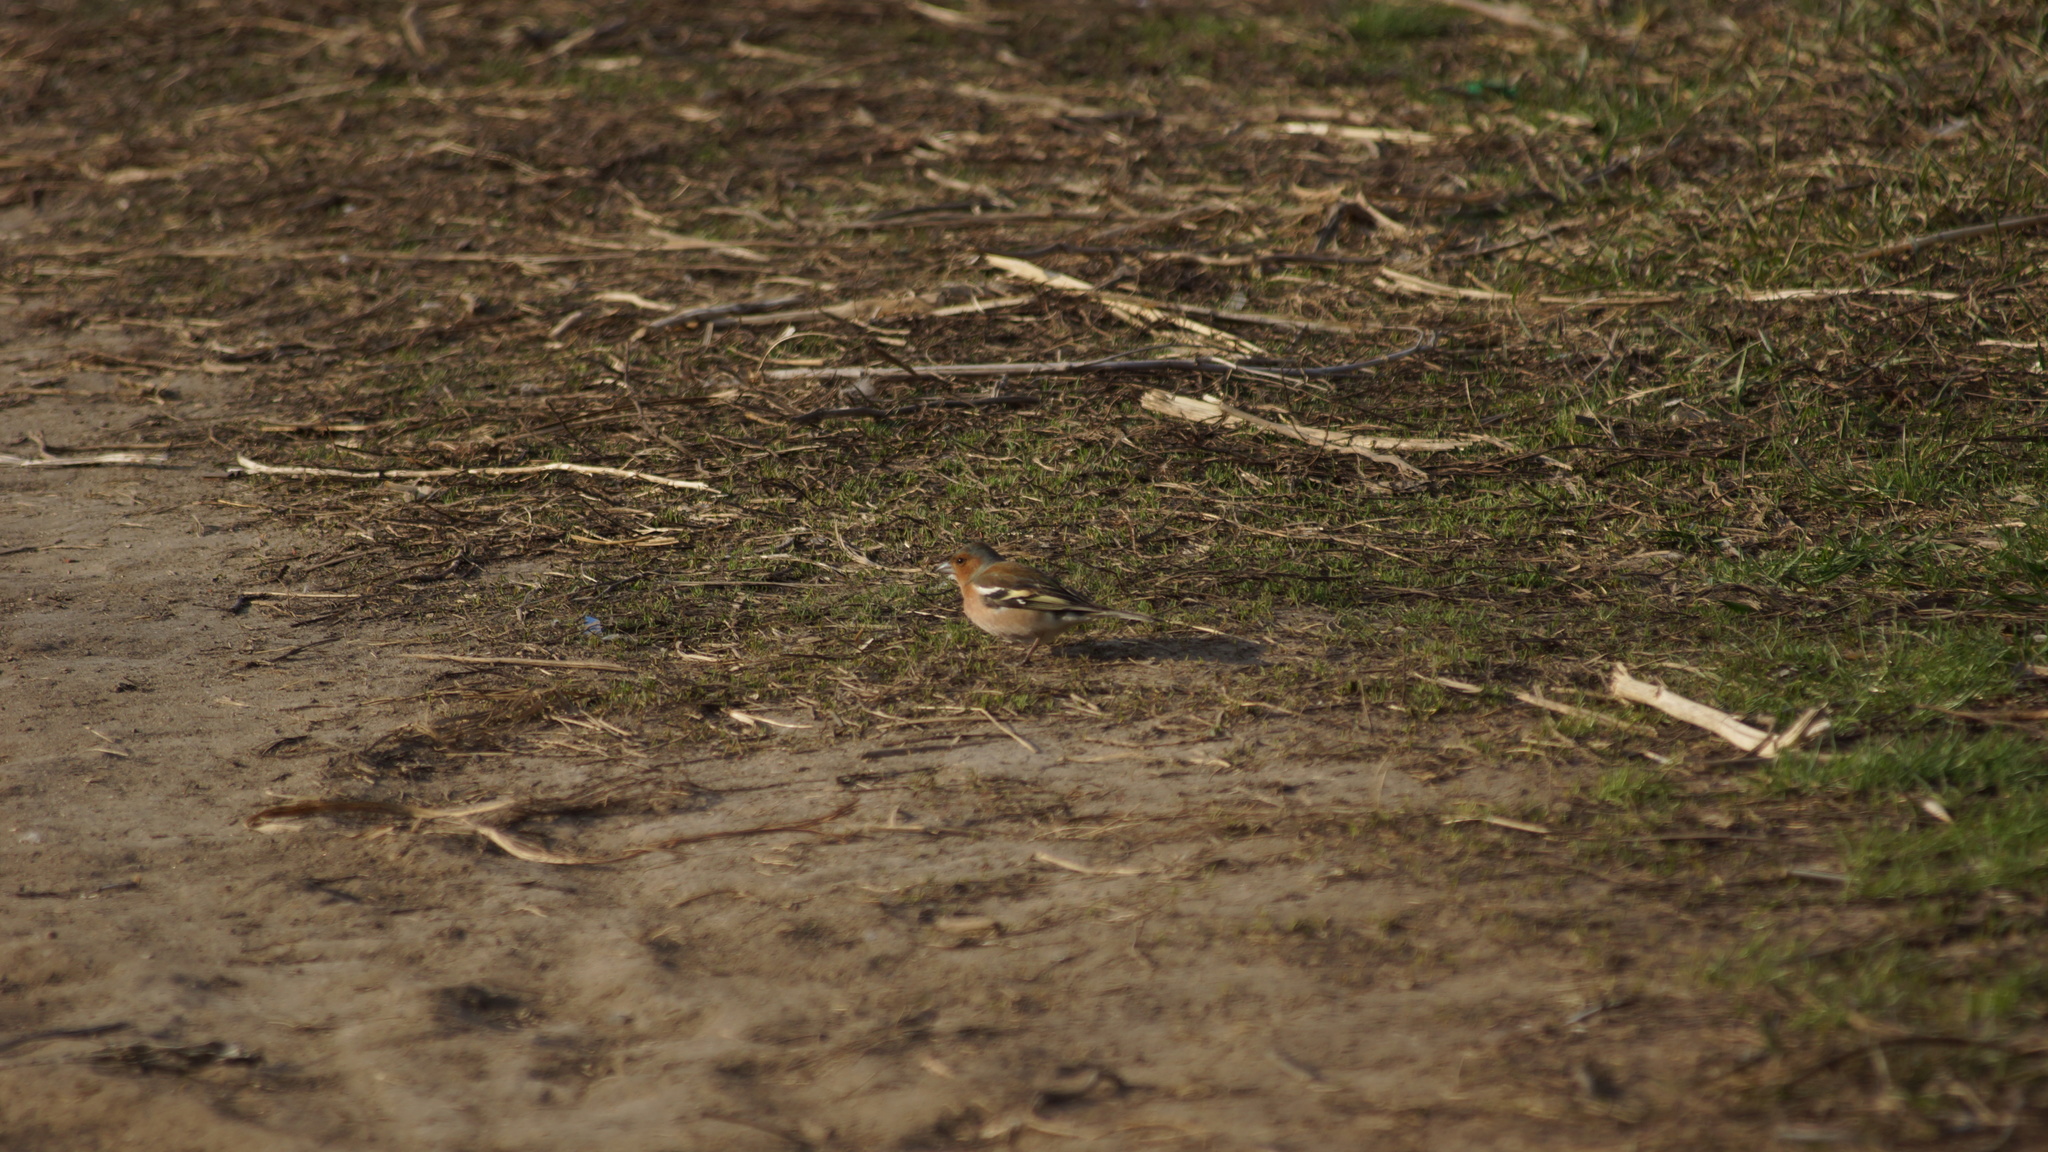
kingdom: Animalia
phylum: Chordata
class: Aves
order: Passeriformes
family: Fringillidae
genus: Fringilla
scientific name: Fringilla coelebs
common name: Common chaffinch
